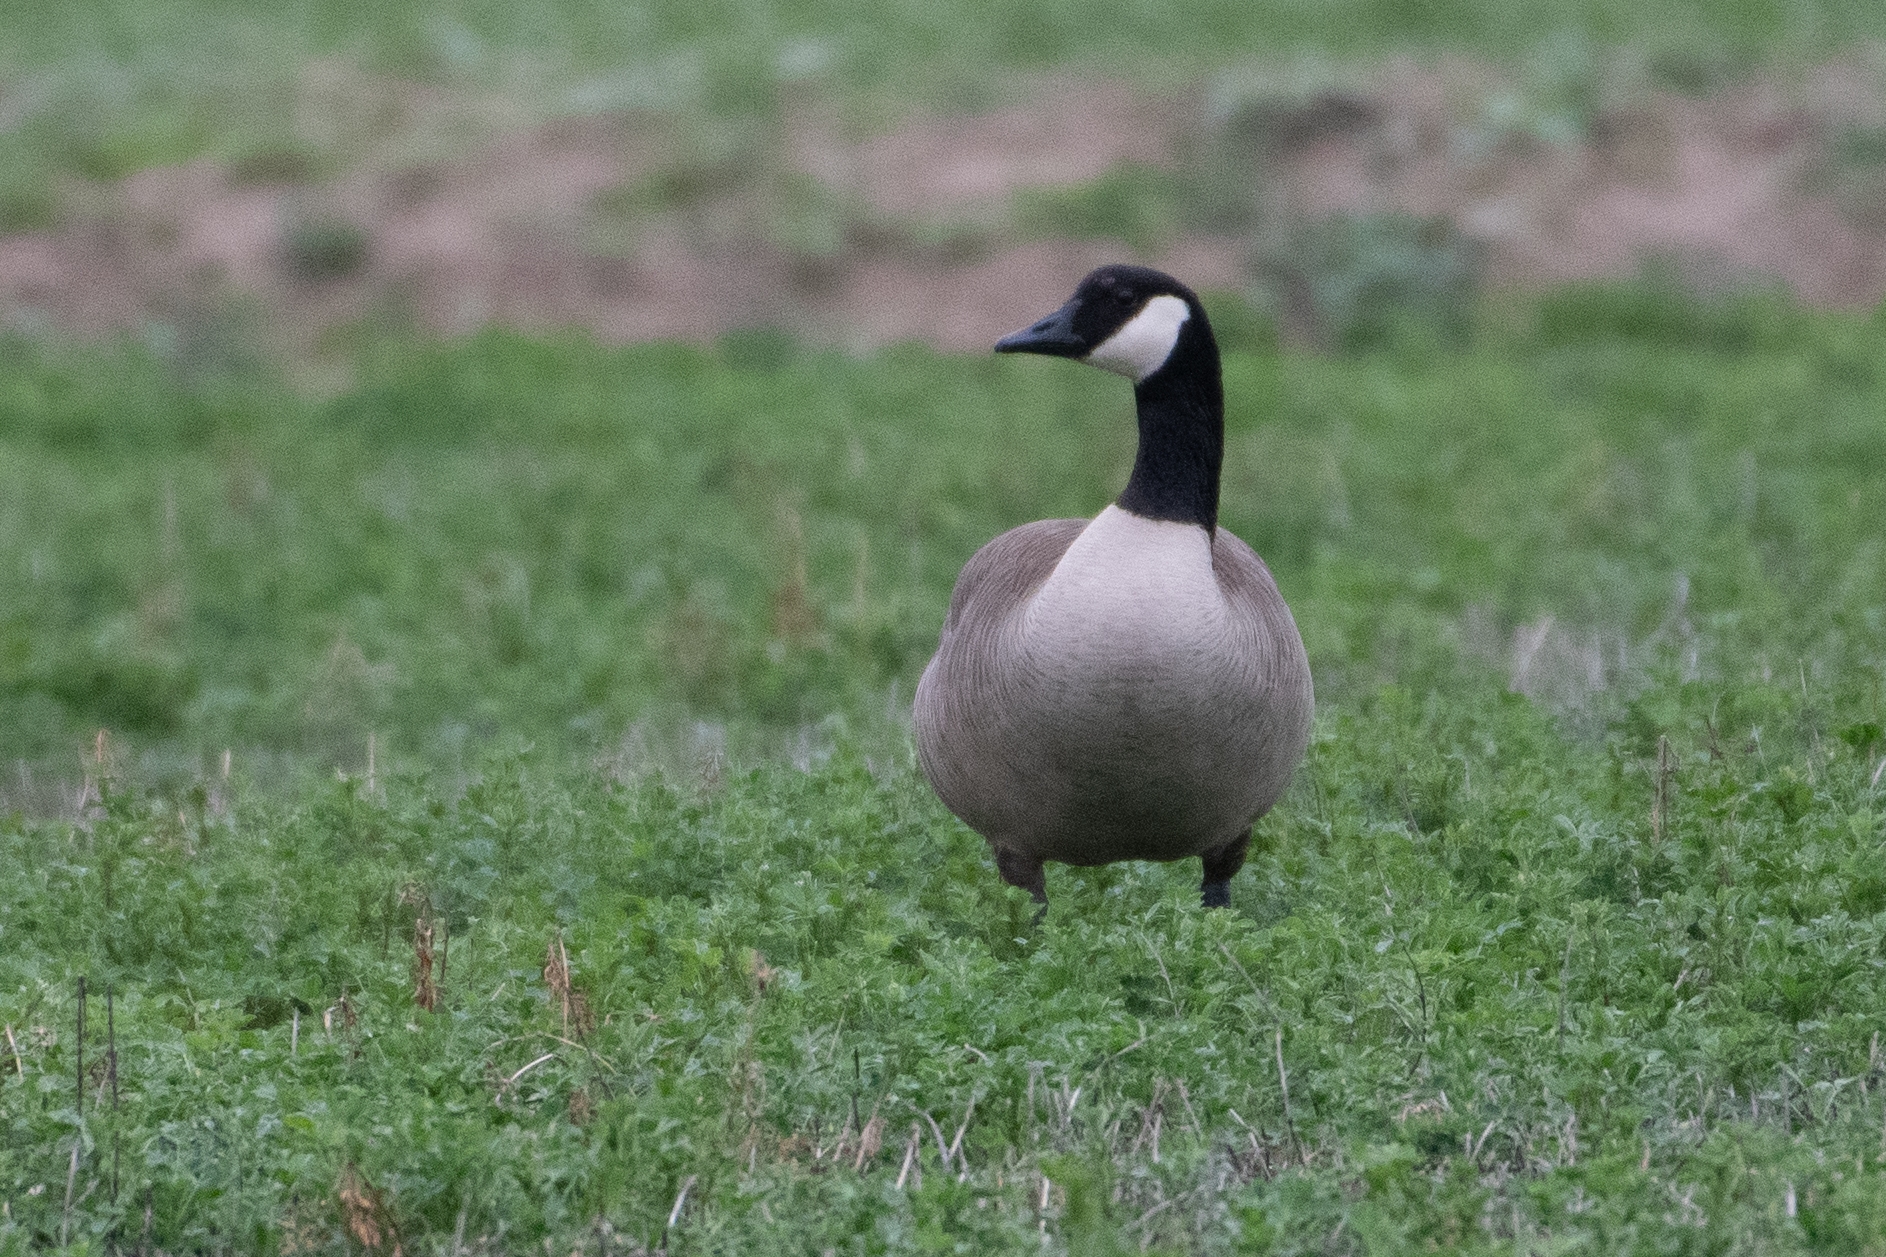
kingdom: Animalia
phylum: Chordata
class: Aves
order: Anseriformes
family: Anatidae
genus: Branta
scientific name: Branta canadensis
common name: Canada goose
